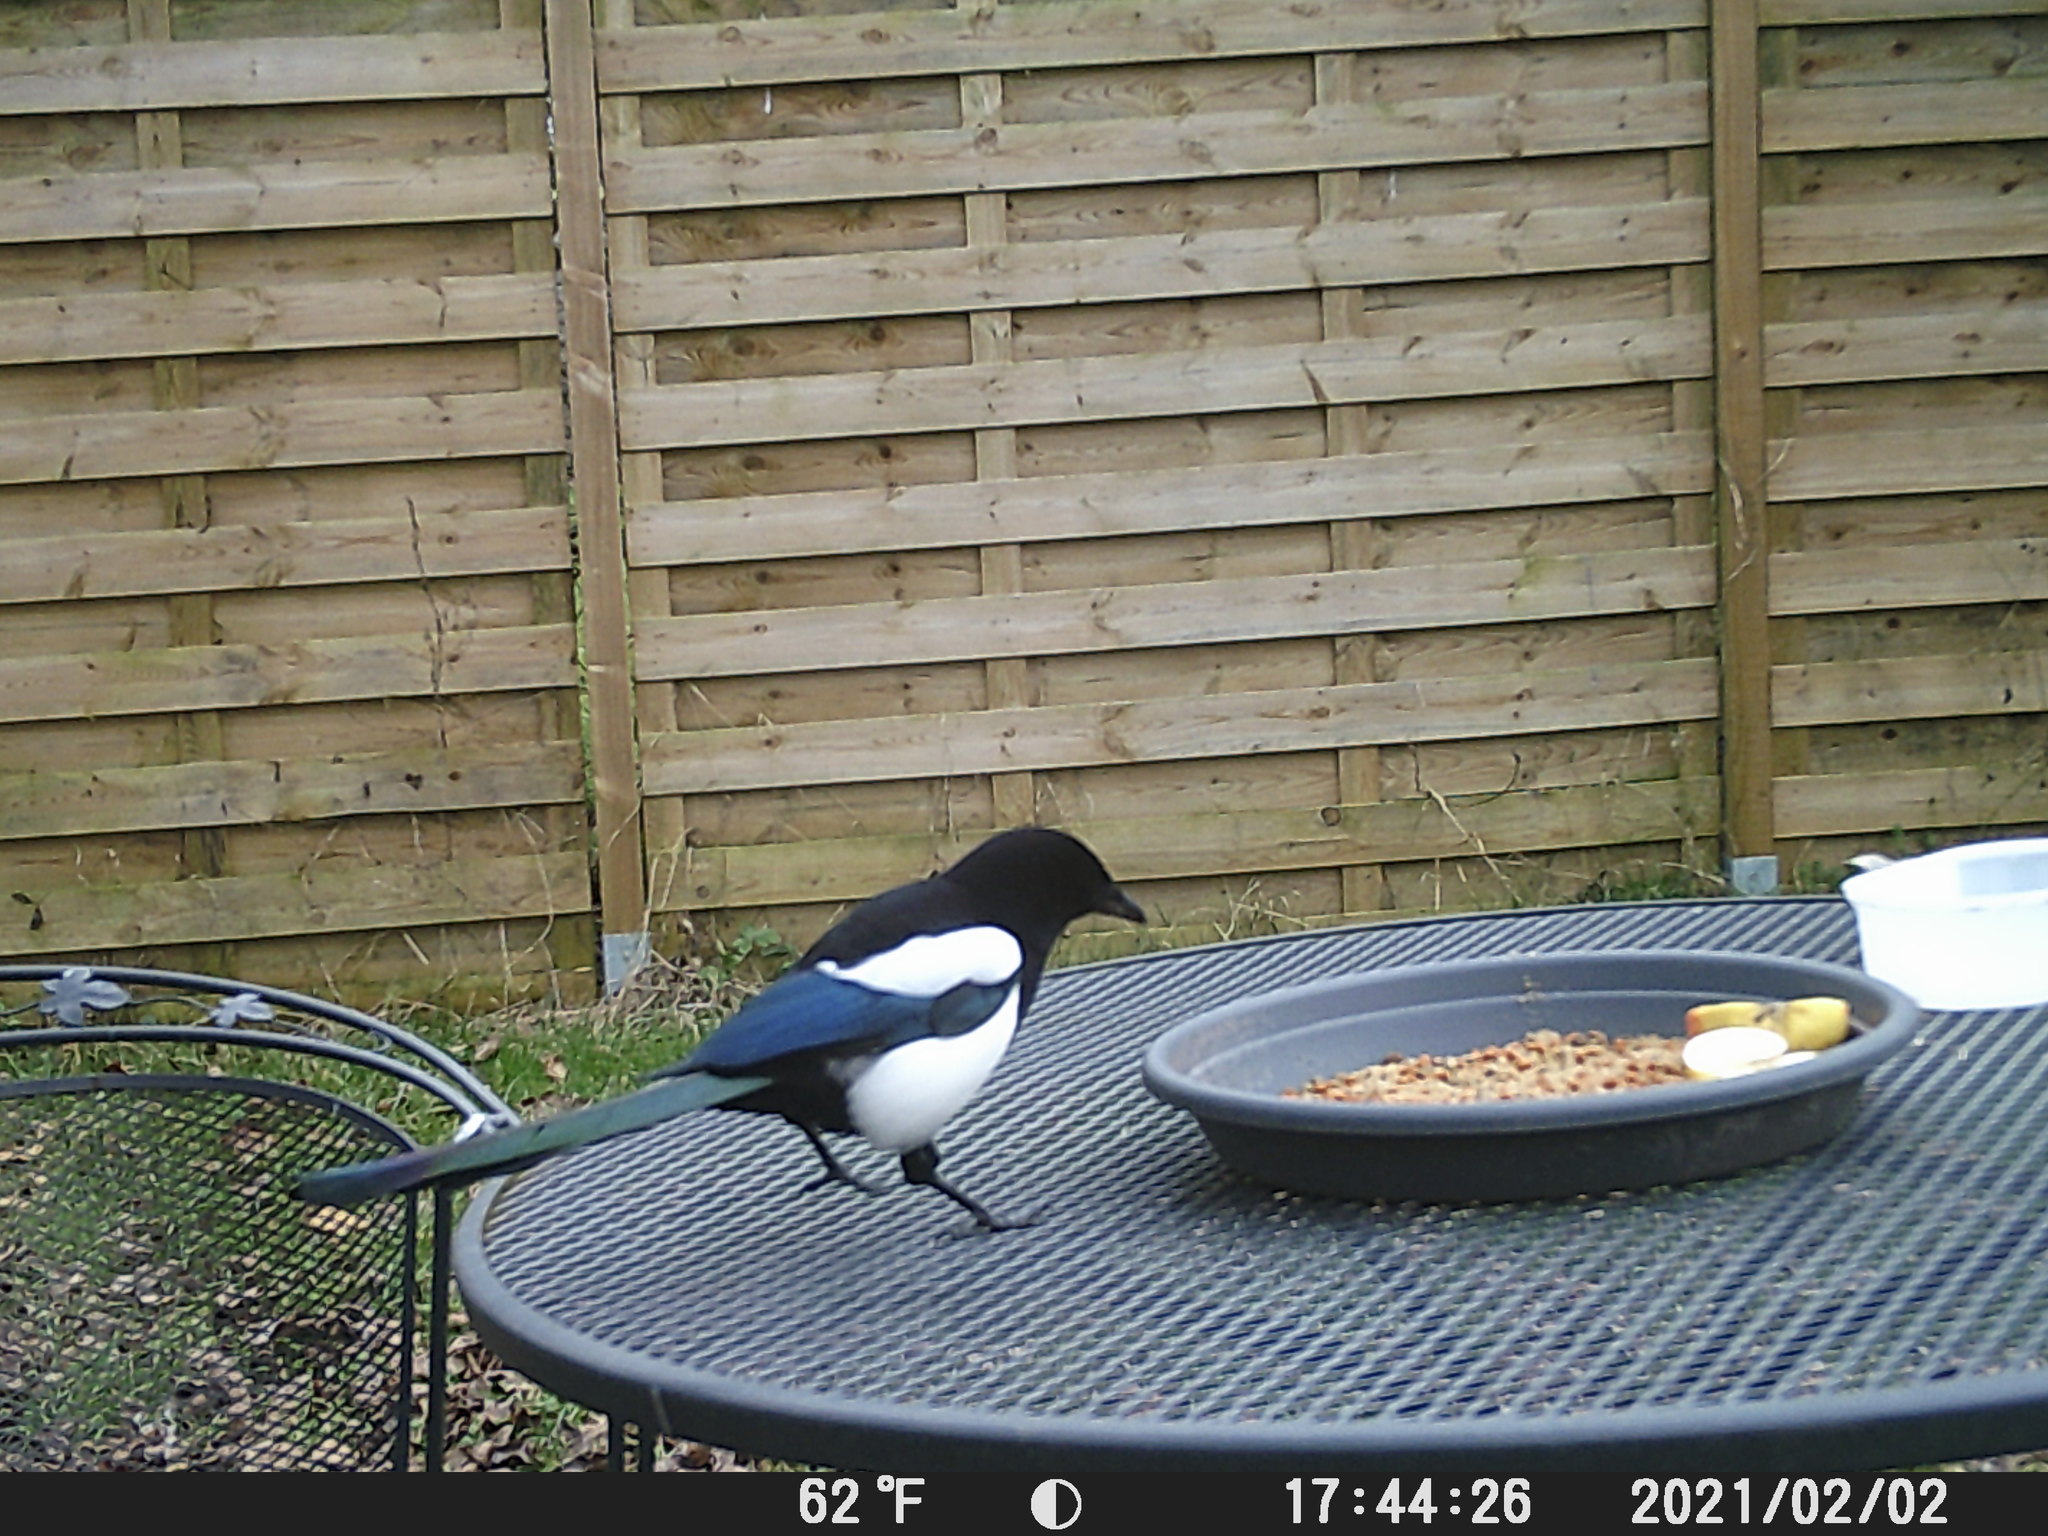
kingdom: Animalia
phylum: Chordata
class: Aves
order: Passeriformes
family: Corvidae
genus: Pica
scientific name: Pica pica
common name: Eurasian magpie
